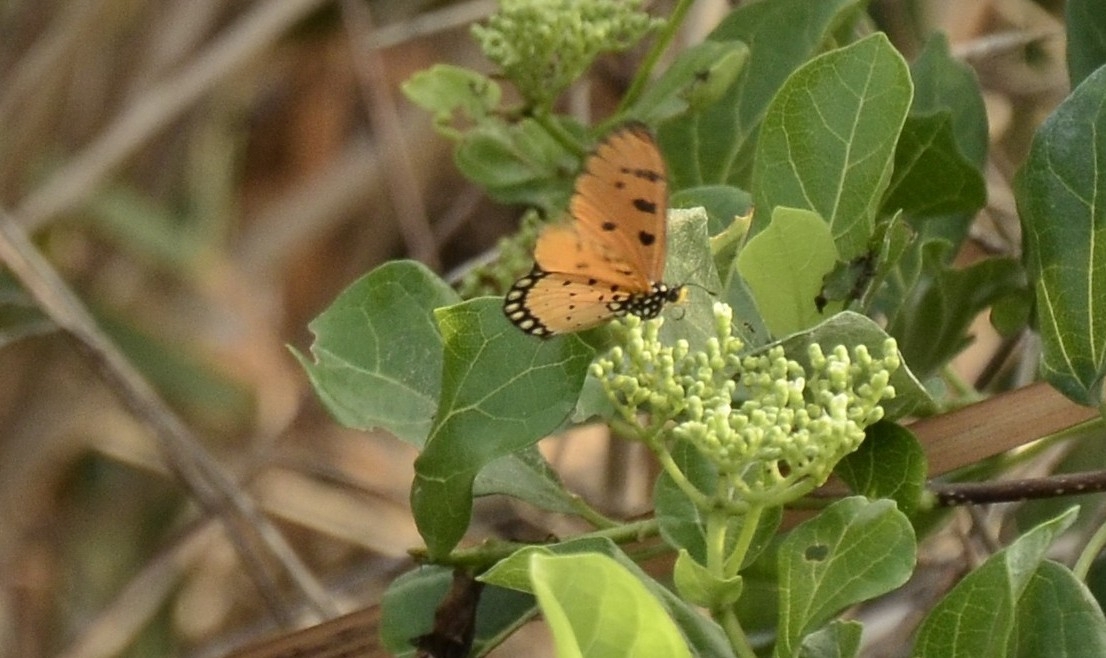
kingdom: Animalia
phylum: Arthropoda
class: Insecta
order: Lepidoptera
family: Nymphalidae
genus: Acraea
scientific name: Acraea terpsicore
